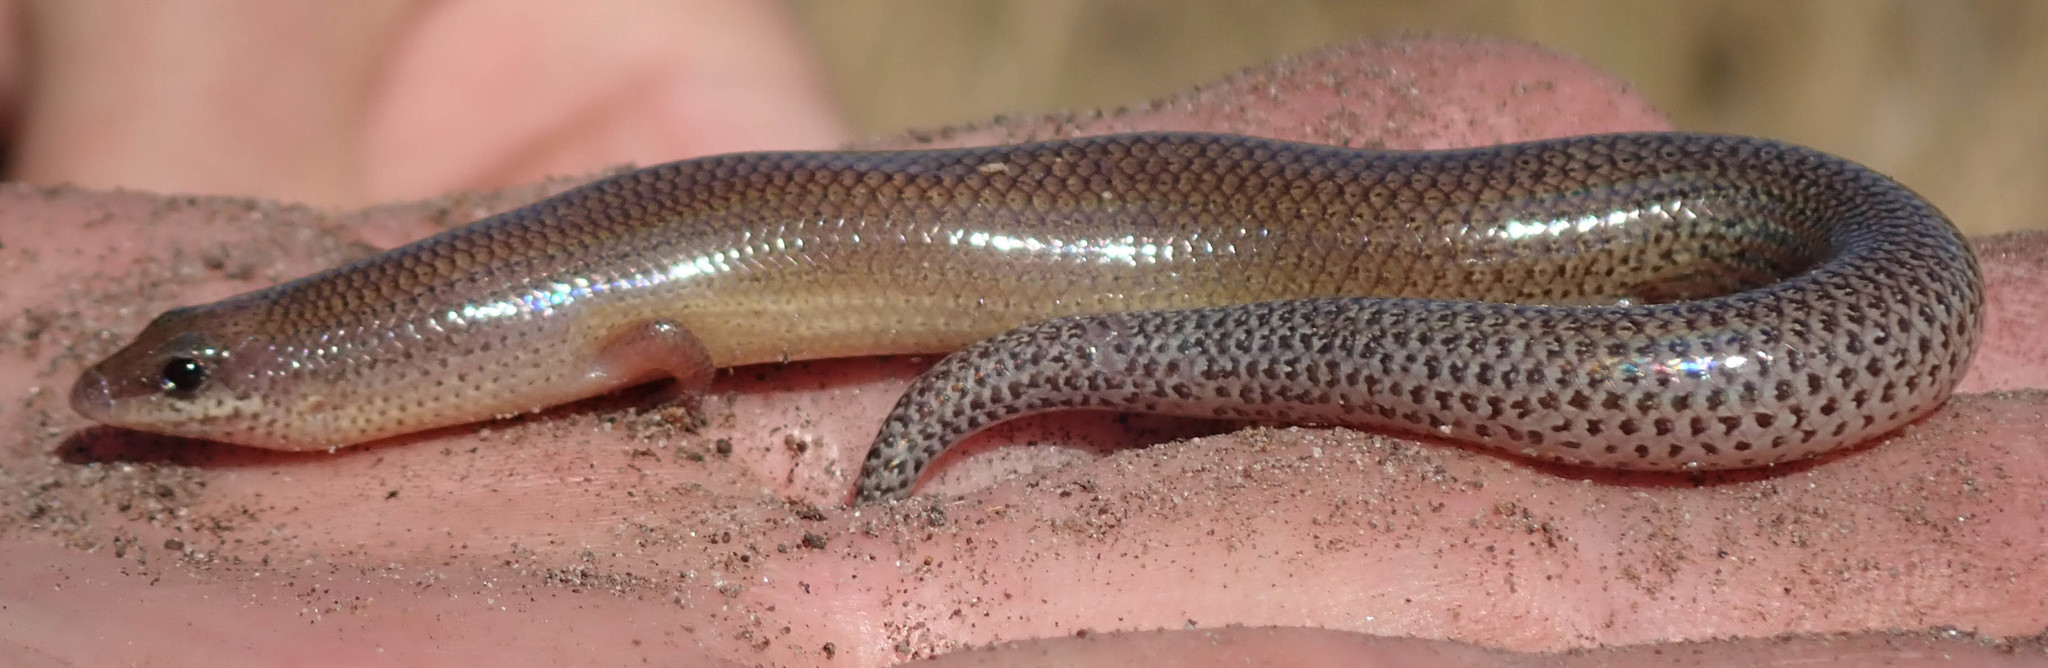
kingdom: Animalia
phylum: Chordata
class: Squamata
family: Scincidae
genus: Mochlus
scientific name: Mochlus sundevallii
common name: Peters' eyelid skink
